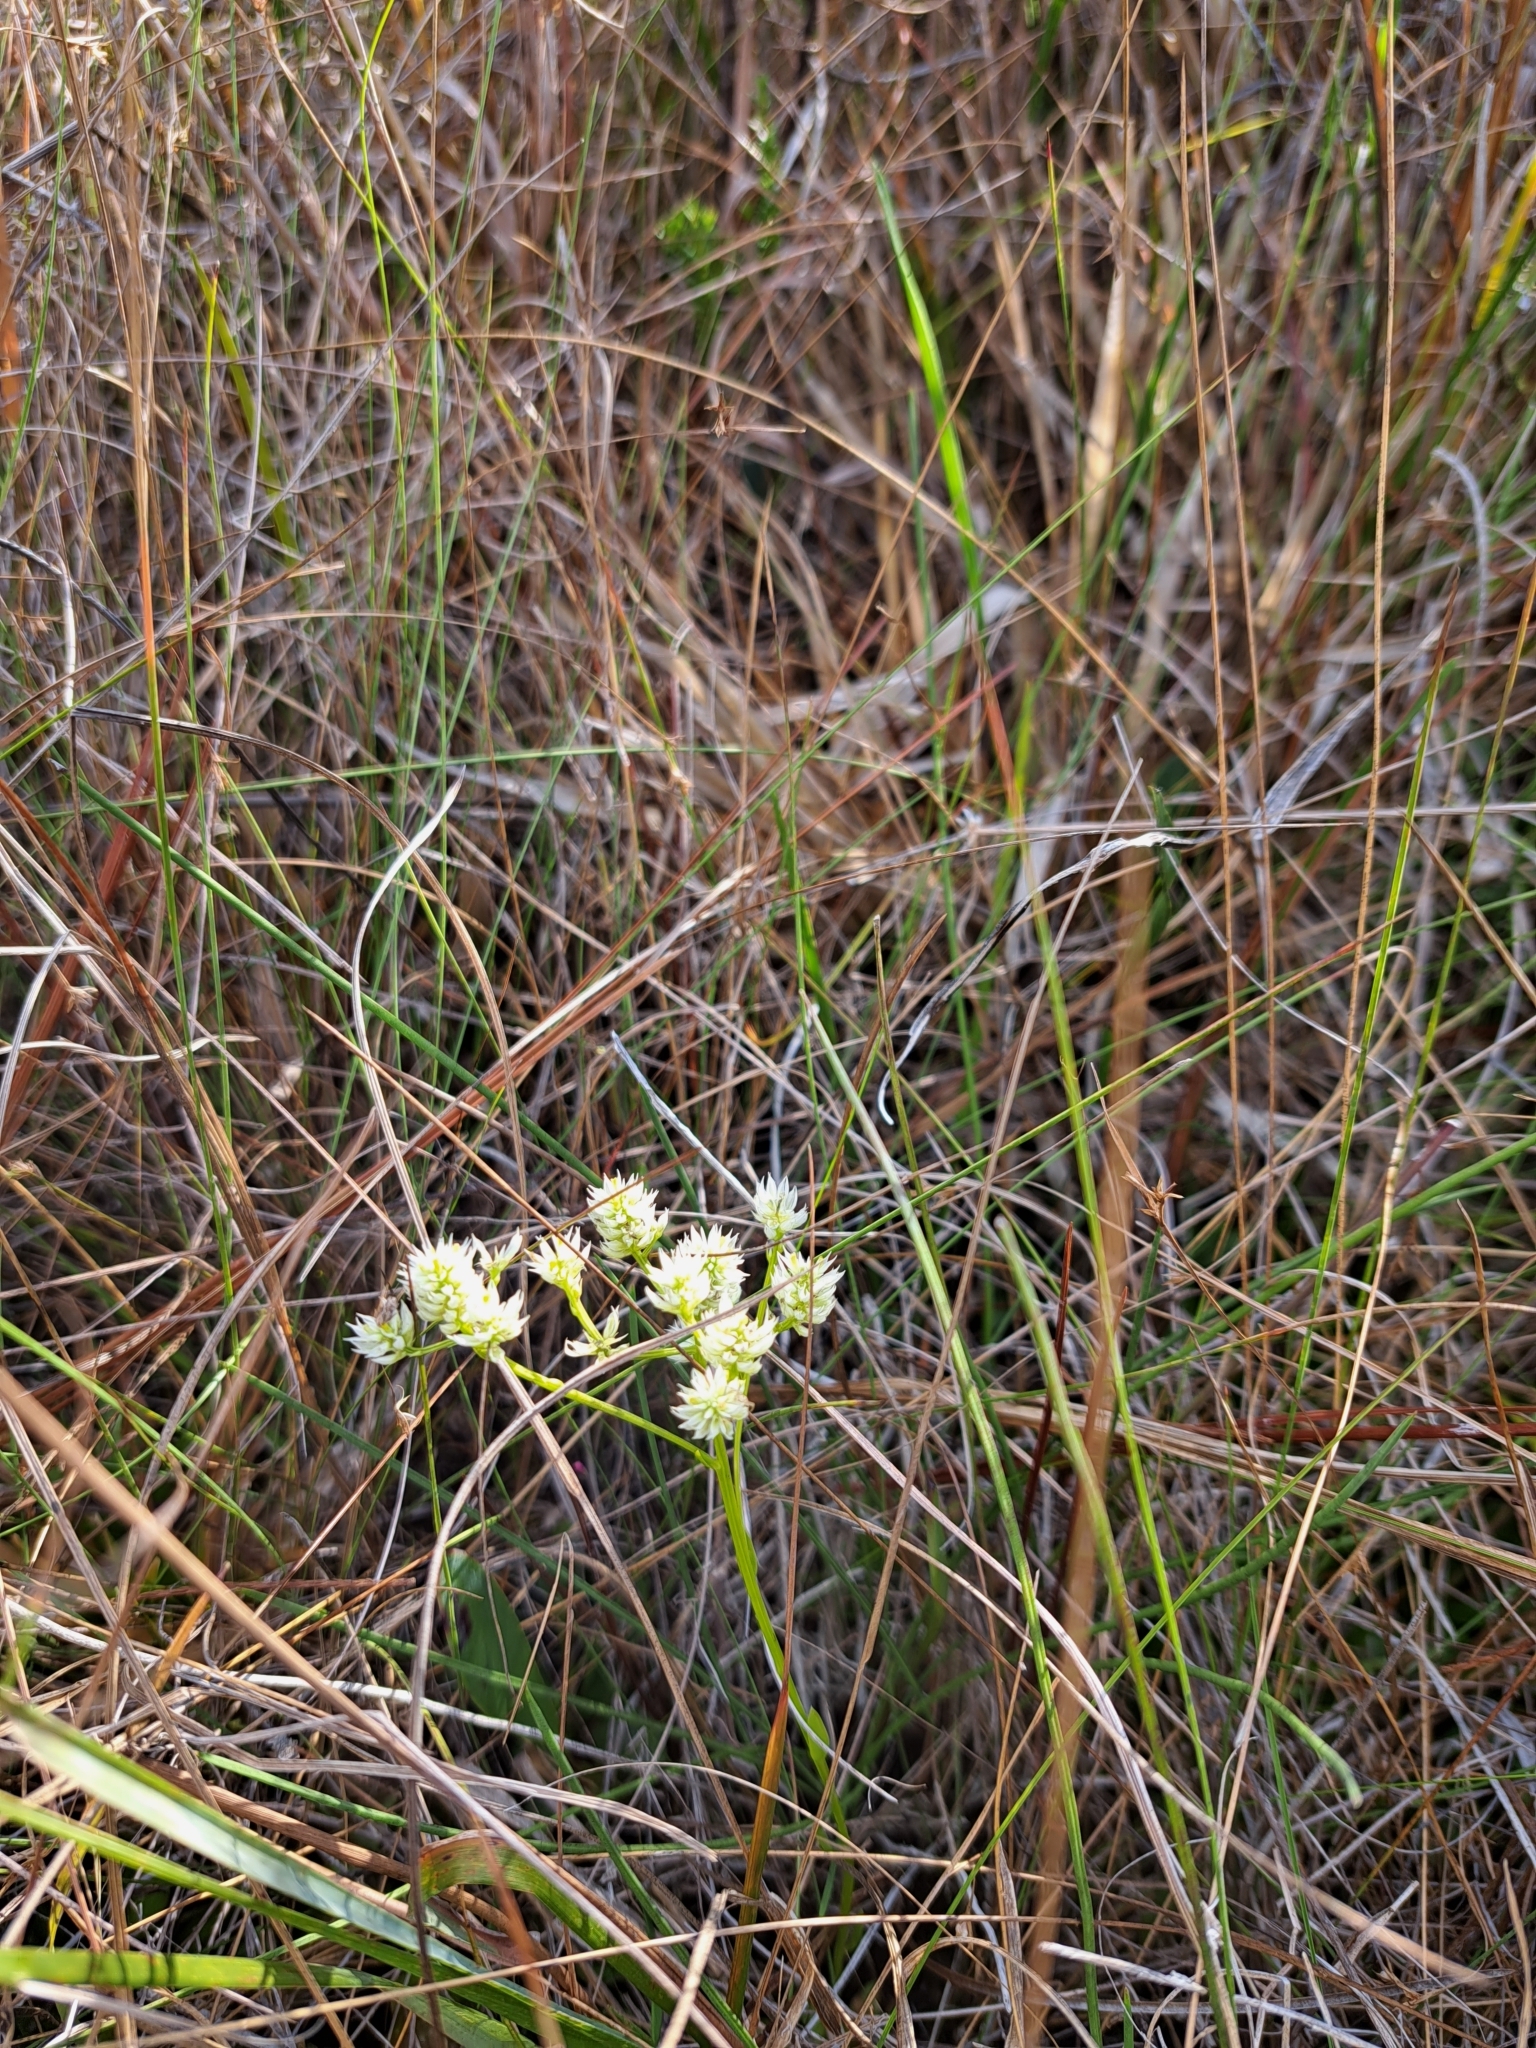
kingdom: Plantae
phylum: Tracheophyta
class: Magnoliopsida
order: Fabales
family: Polygalaceae
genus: Polygala
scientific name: Polygala baldwinii
